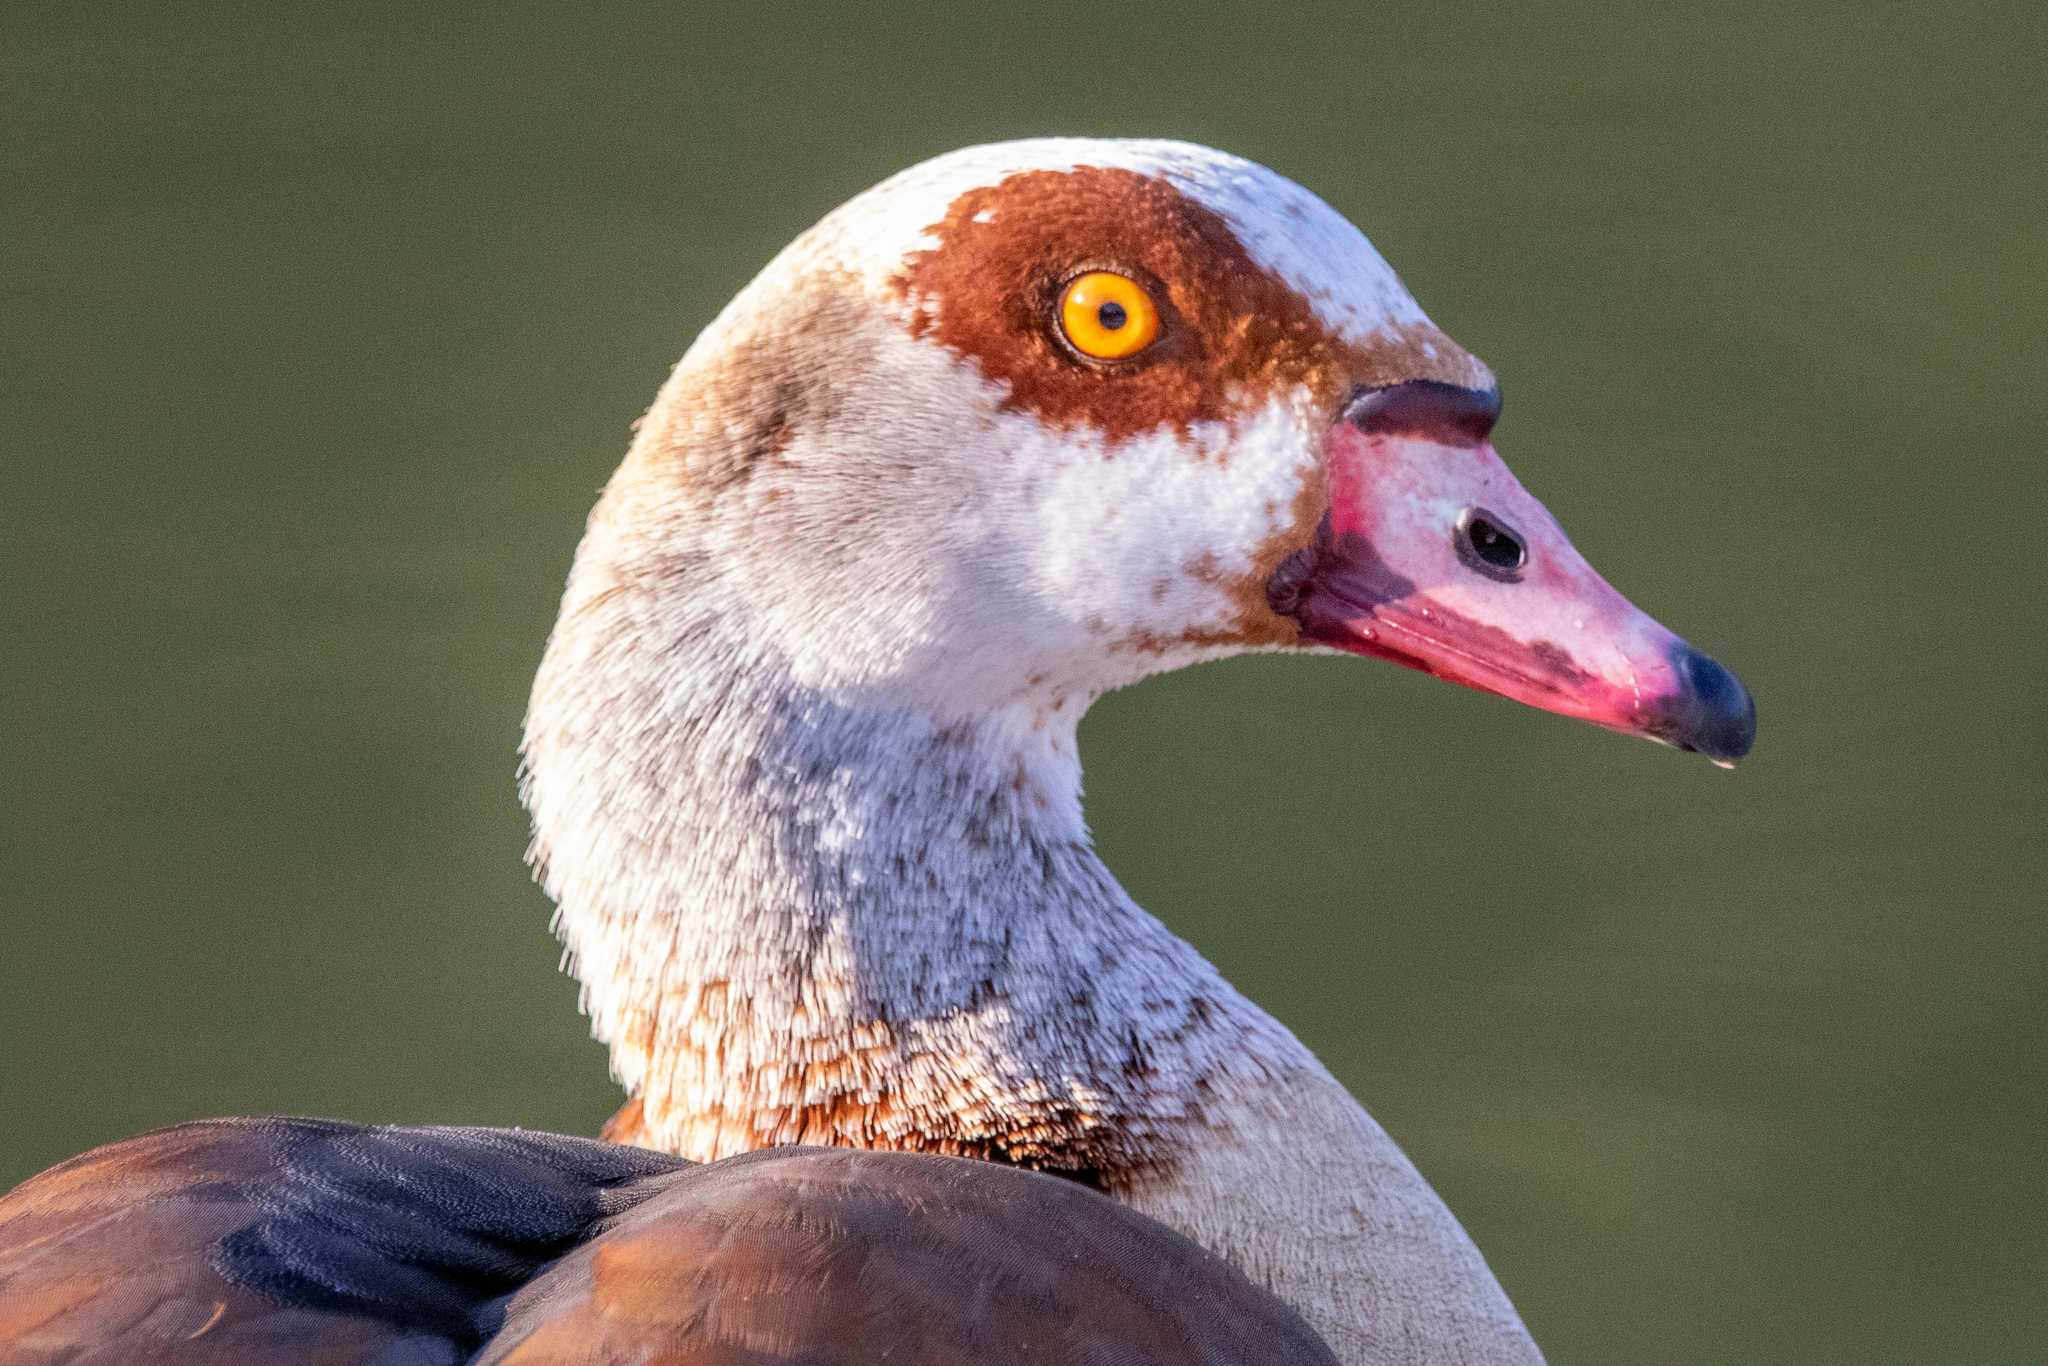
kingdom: Animalia
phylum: Chordata
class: Aves
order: Anseriformes
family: Anatidae
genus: Alopochen
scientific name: Alopochen aegyptiaca
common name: Egyptian goose
